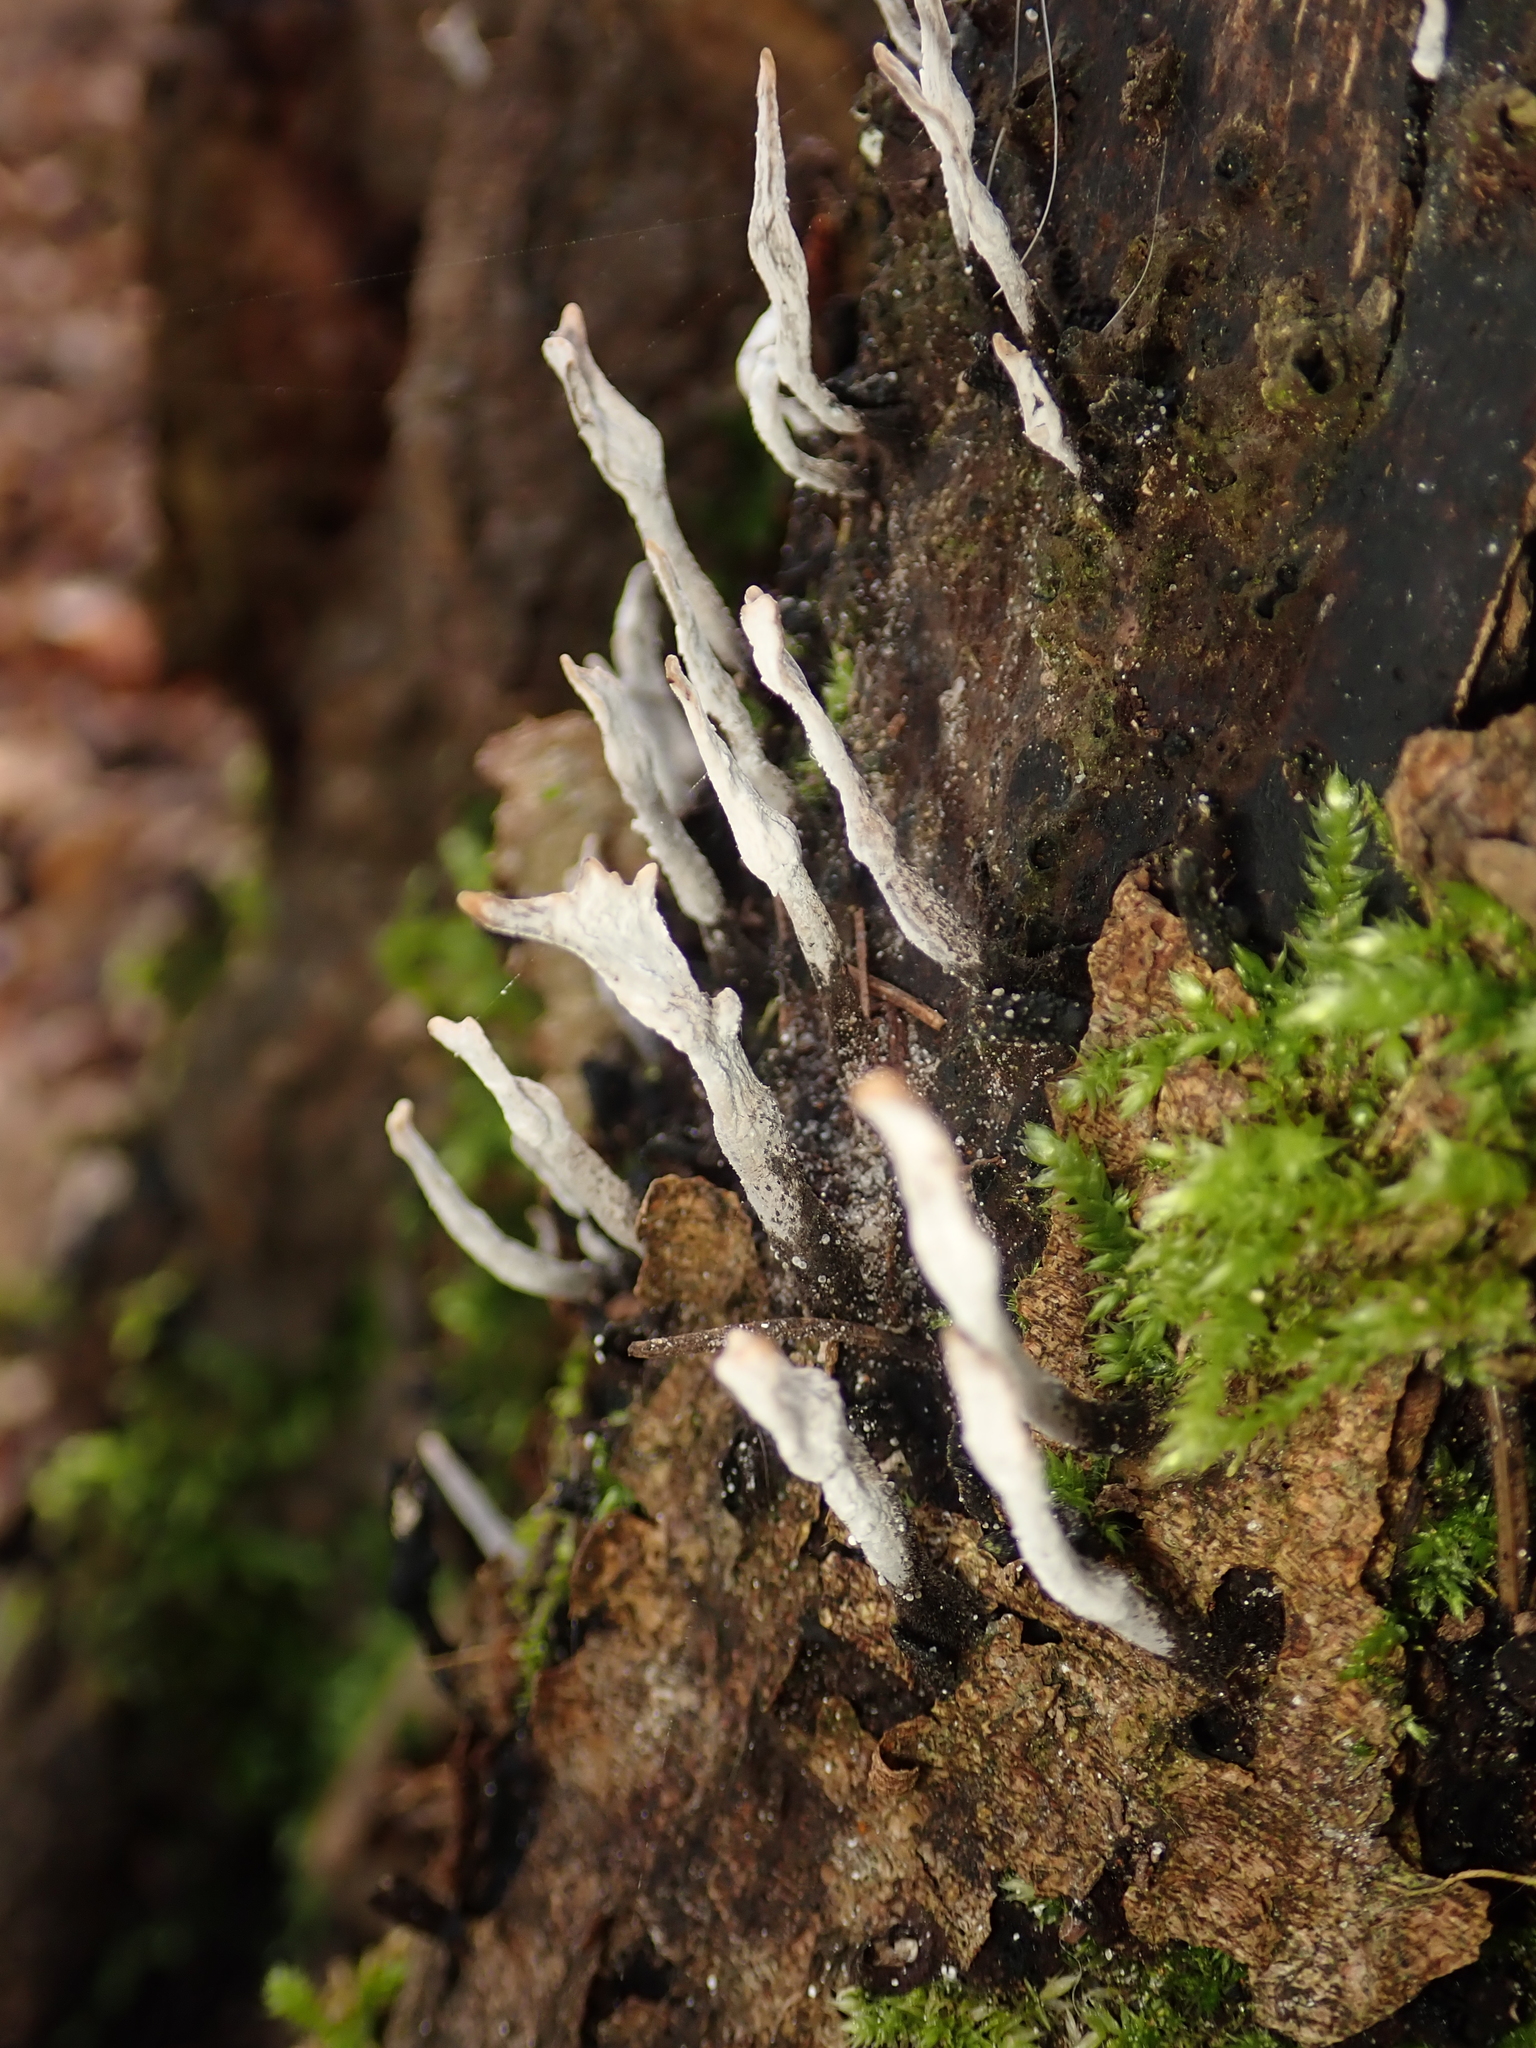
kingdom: Fungi
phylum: Ascomycota
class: Sordariomycetes
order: Xylariales
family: Xylariaceae
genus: Xylaria
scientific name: Xylaria hypoxylon
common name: Candle-snuff fungus
